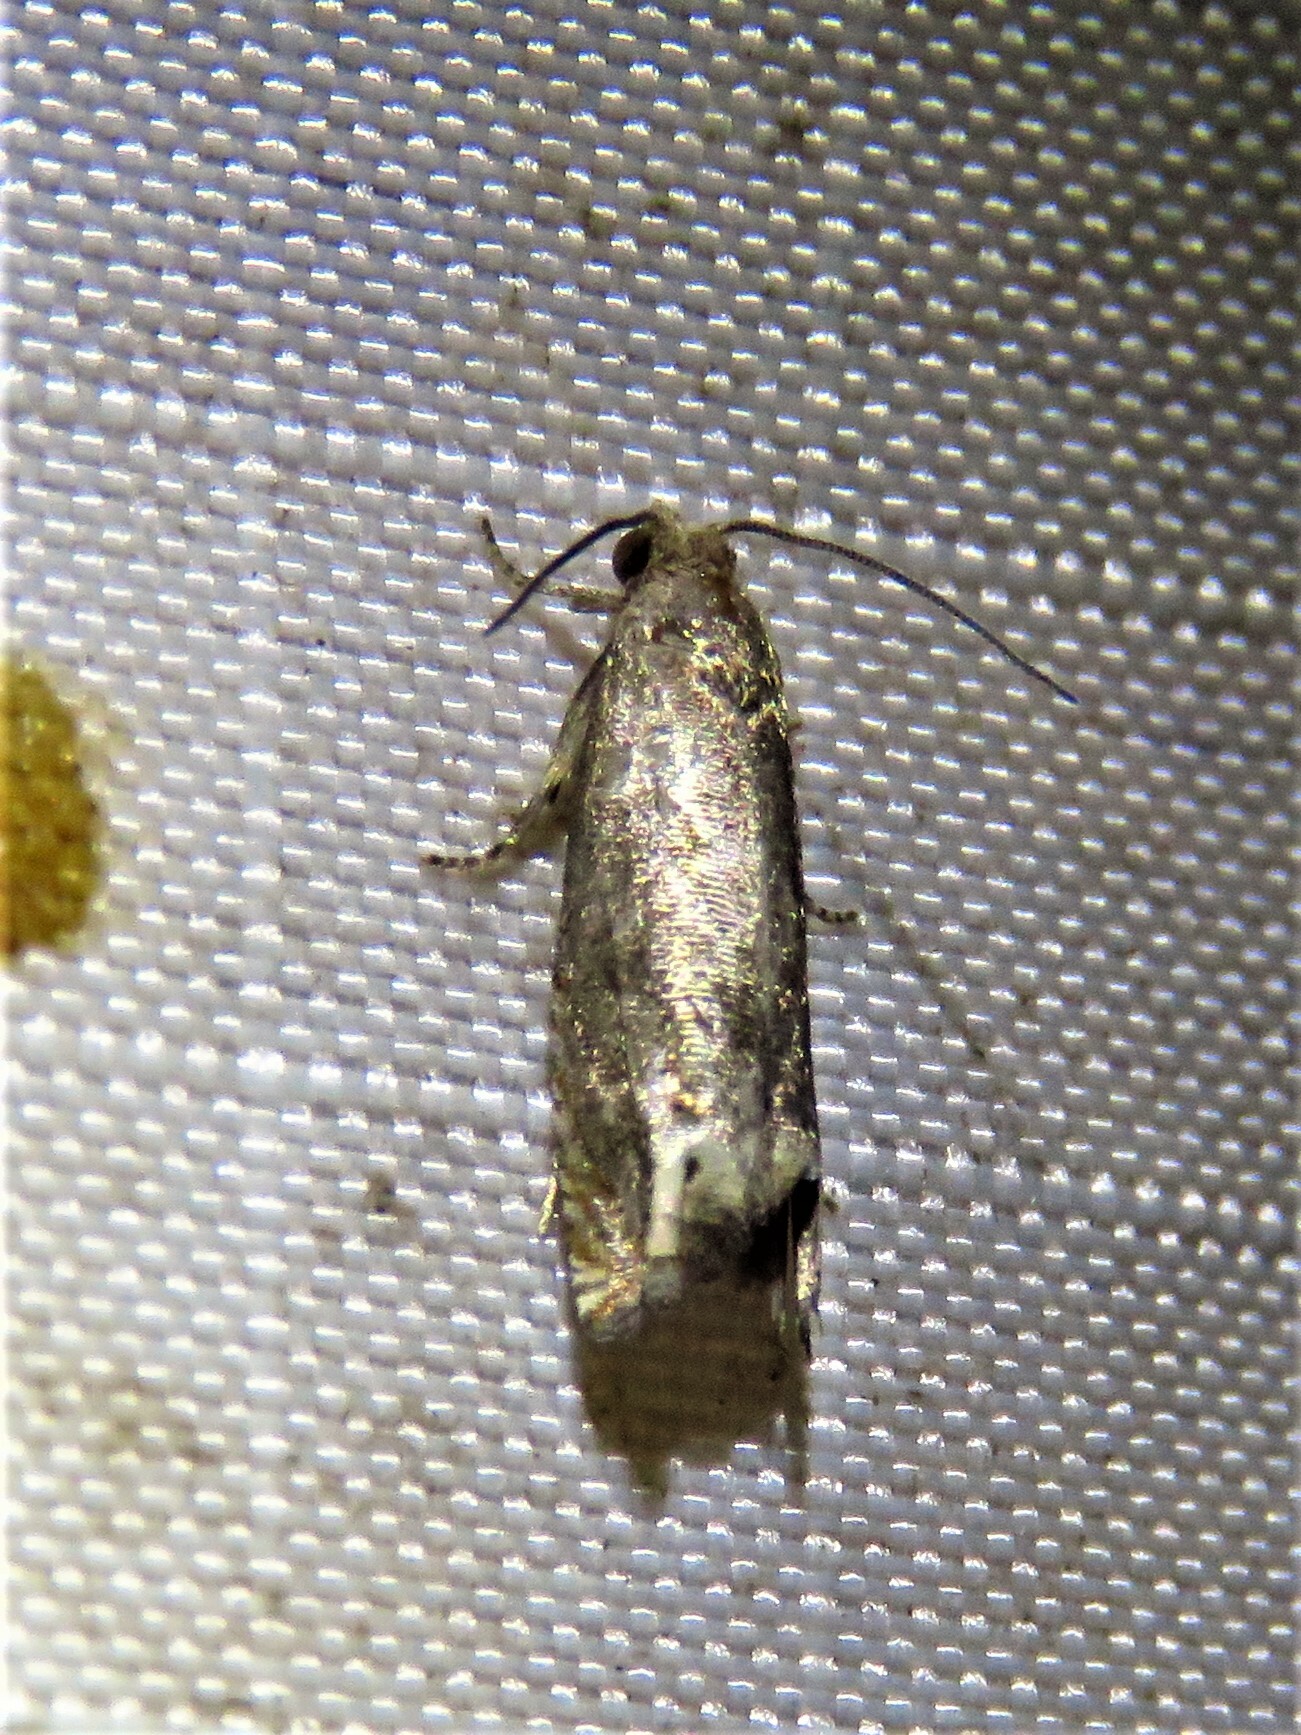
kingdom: Animalia
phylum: Arthropoda
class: Insecta
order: Lepidoptera
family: Tortricidae
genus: Epiblema
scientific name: Epiblema
